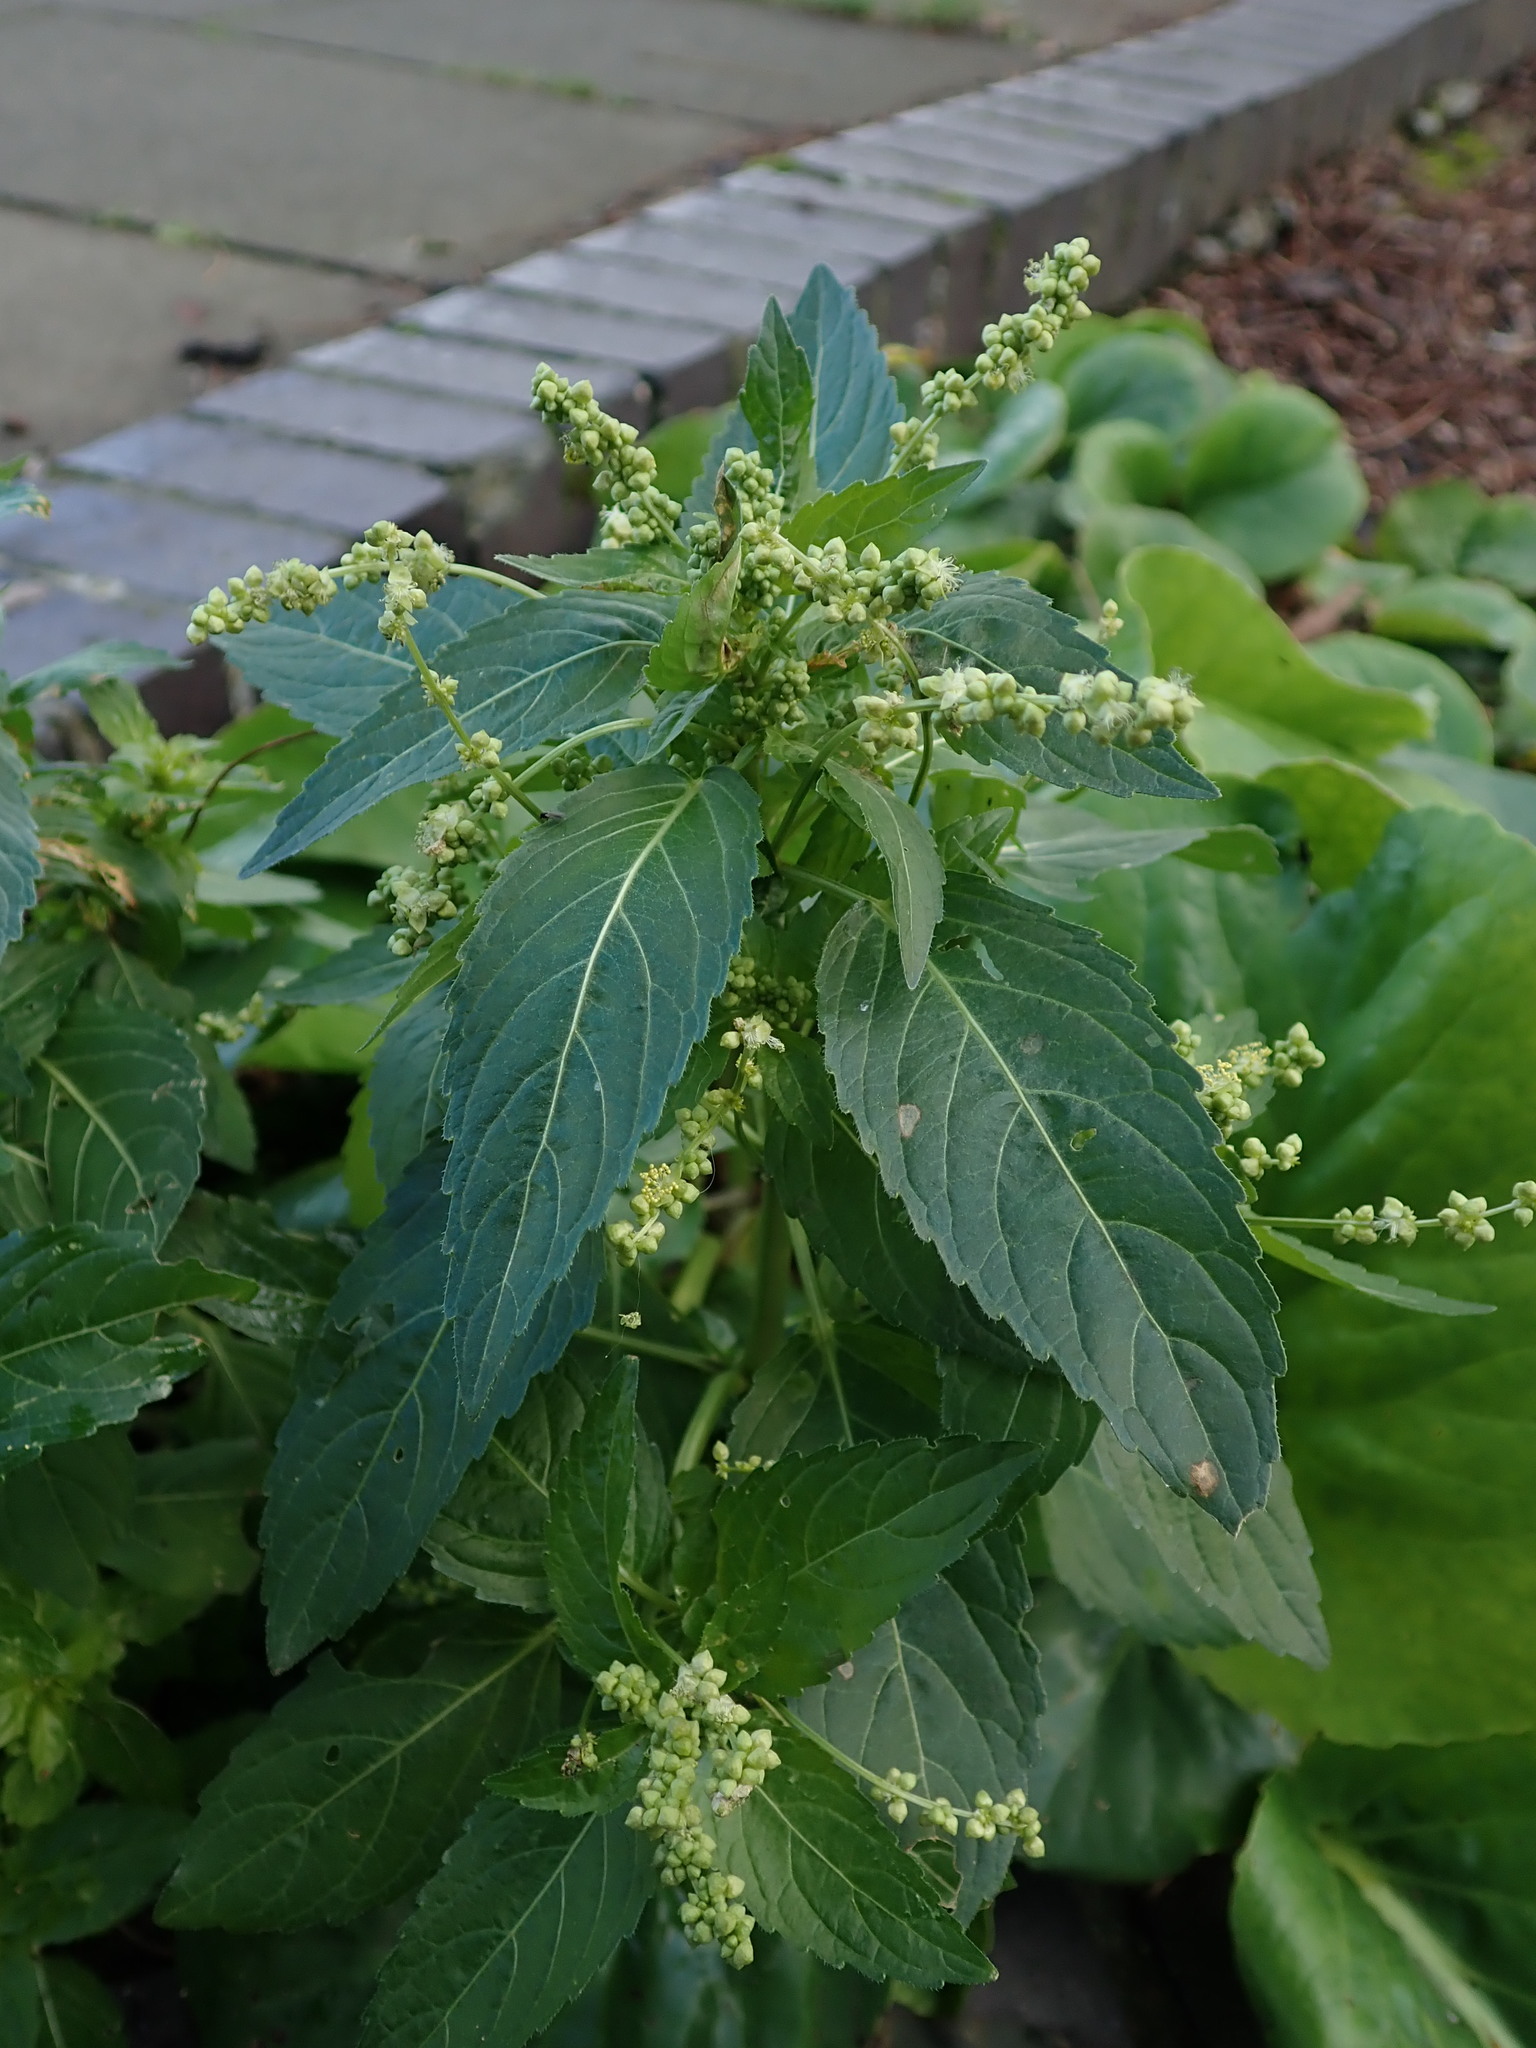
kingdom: Plantae
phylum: Tracheophyta
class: Magnoliopsida
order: Malpighiales
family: Euphorbiaceae
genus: Mercurialis
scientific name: Mercurialis annua
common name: Annual mercury
